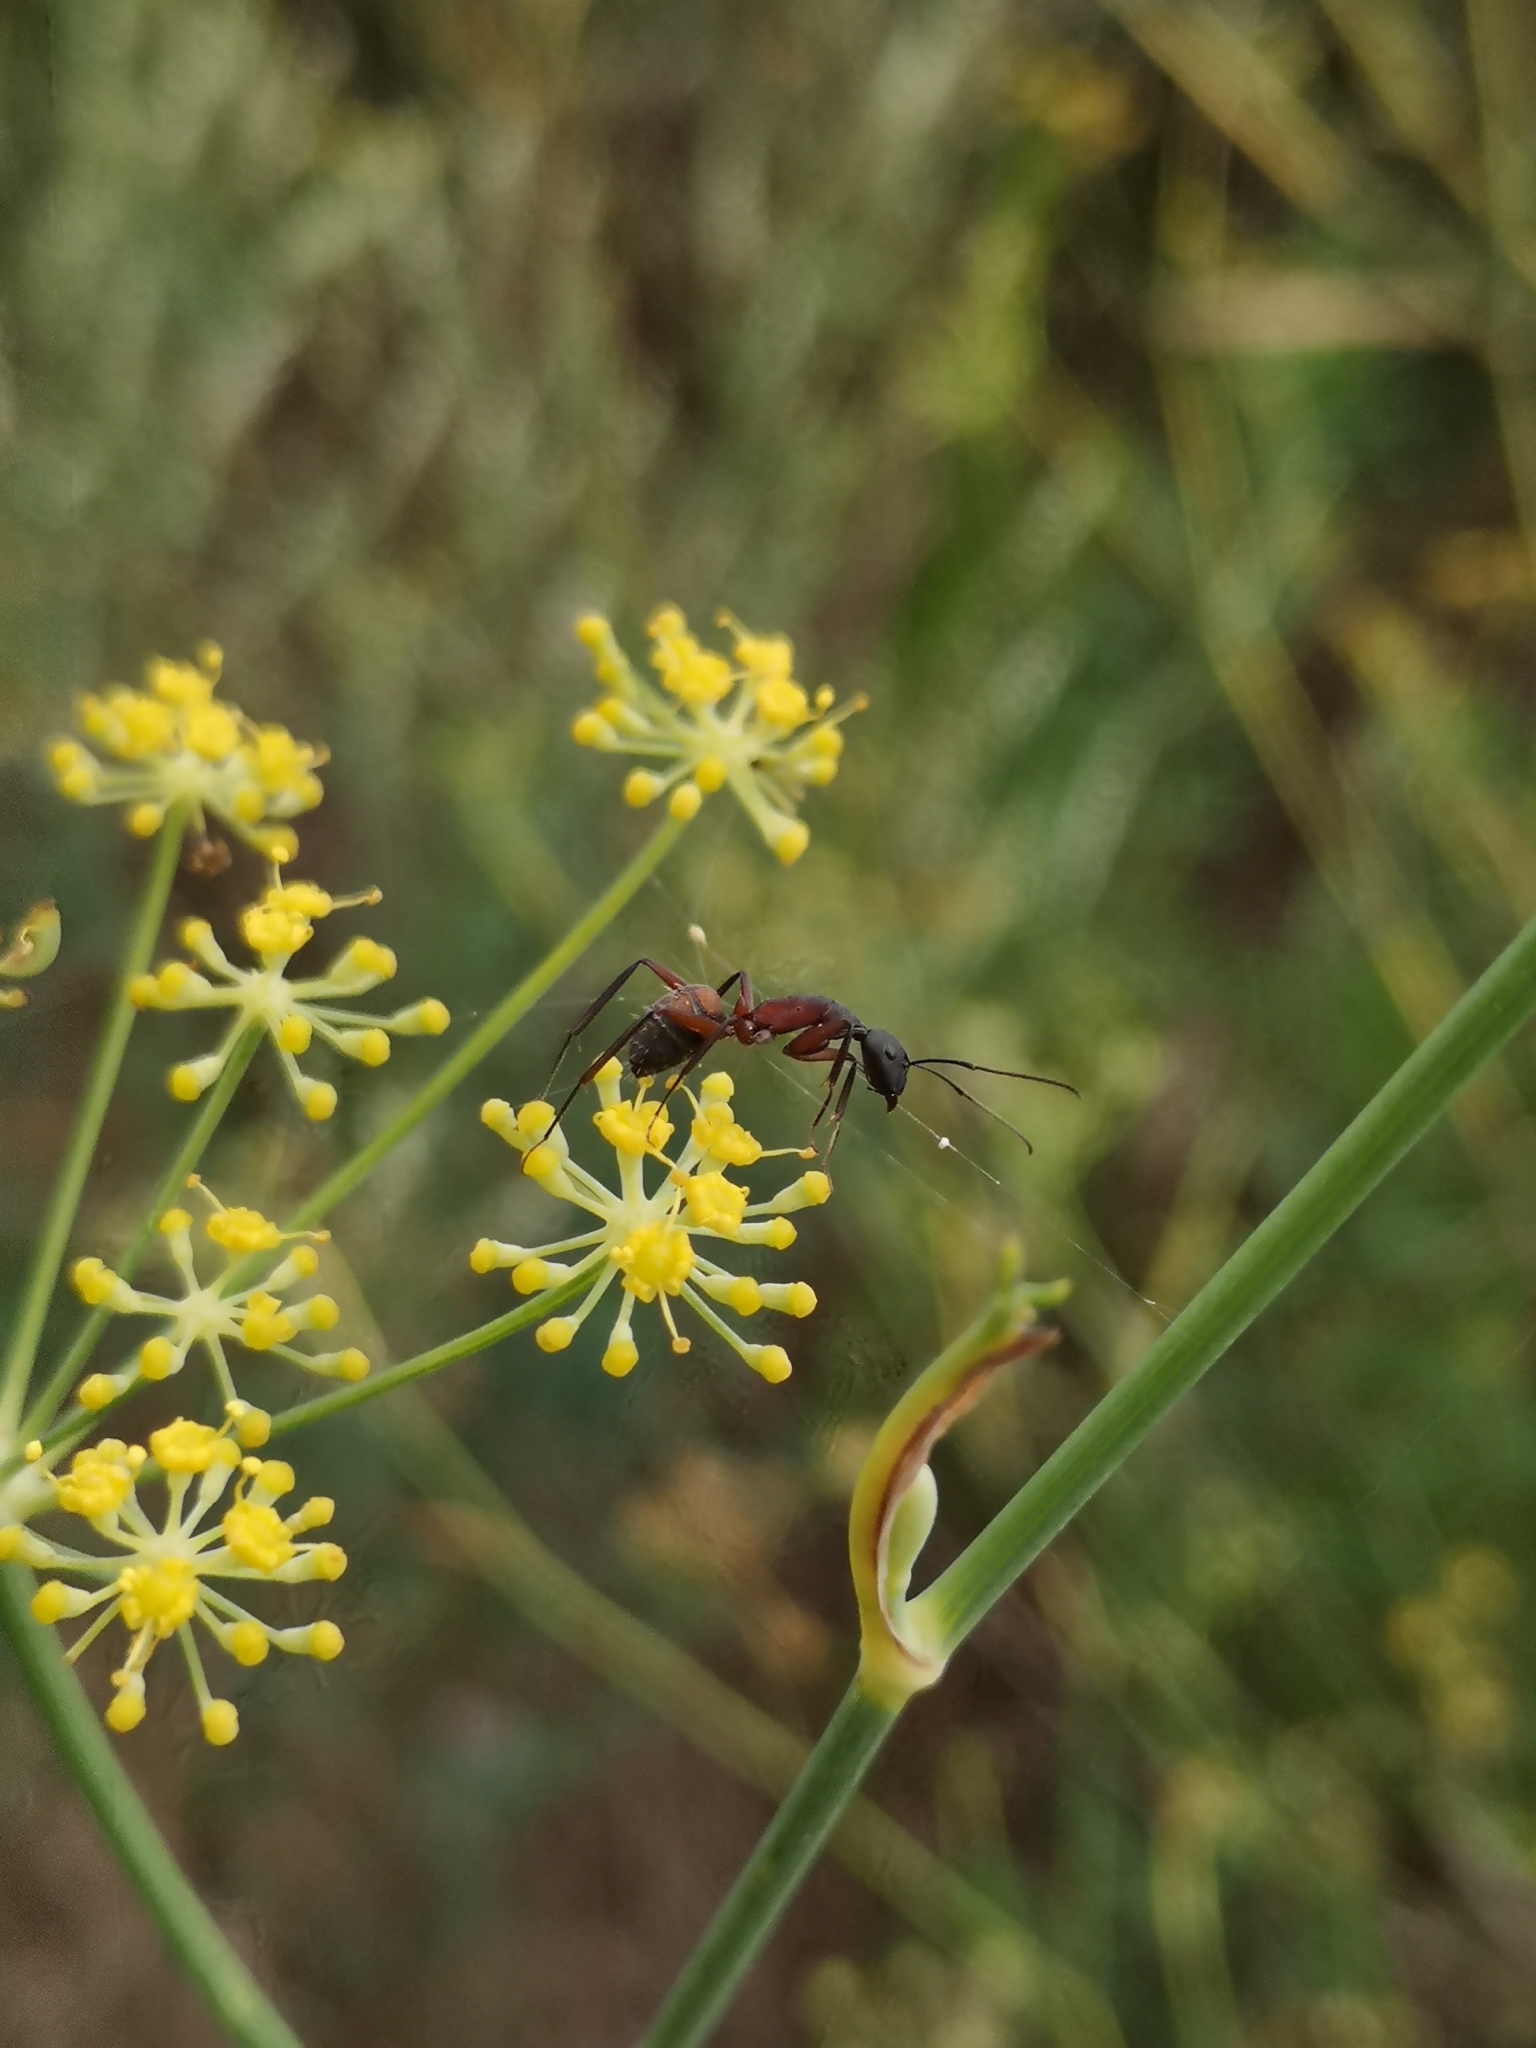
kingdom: Animalia
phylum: Arthropoda
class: Insecta
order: Hymenoptera
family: Formicidae
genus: Camponotus
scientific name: Camponotus cruentatus
